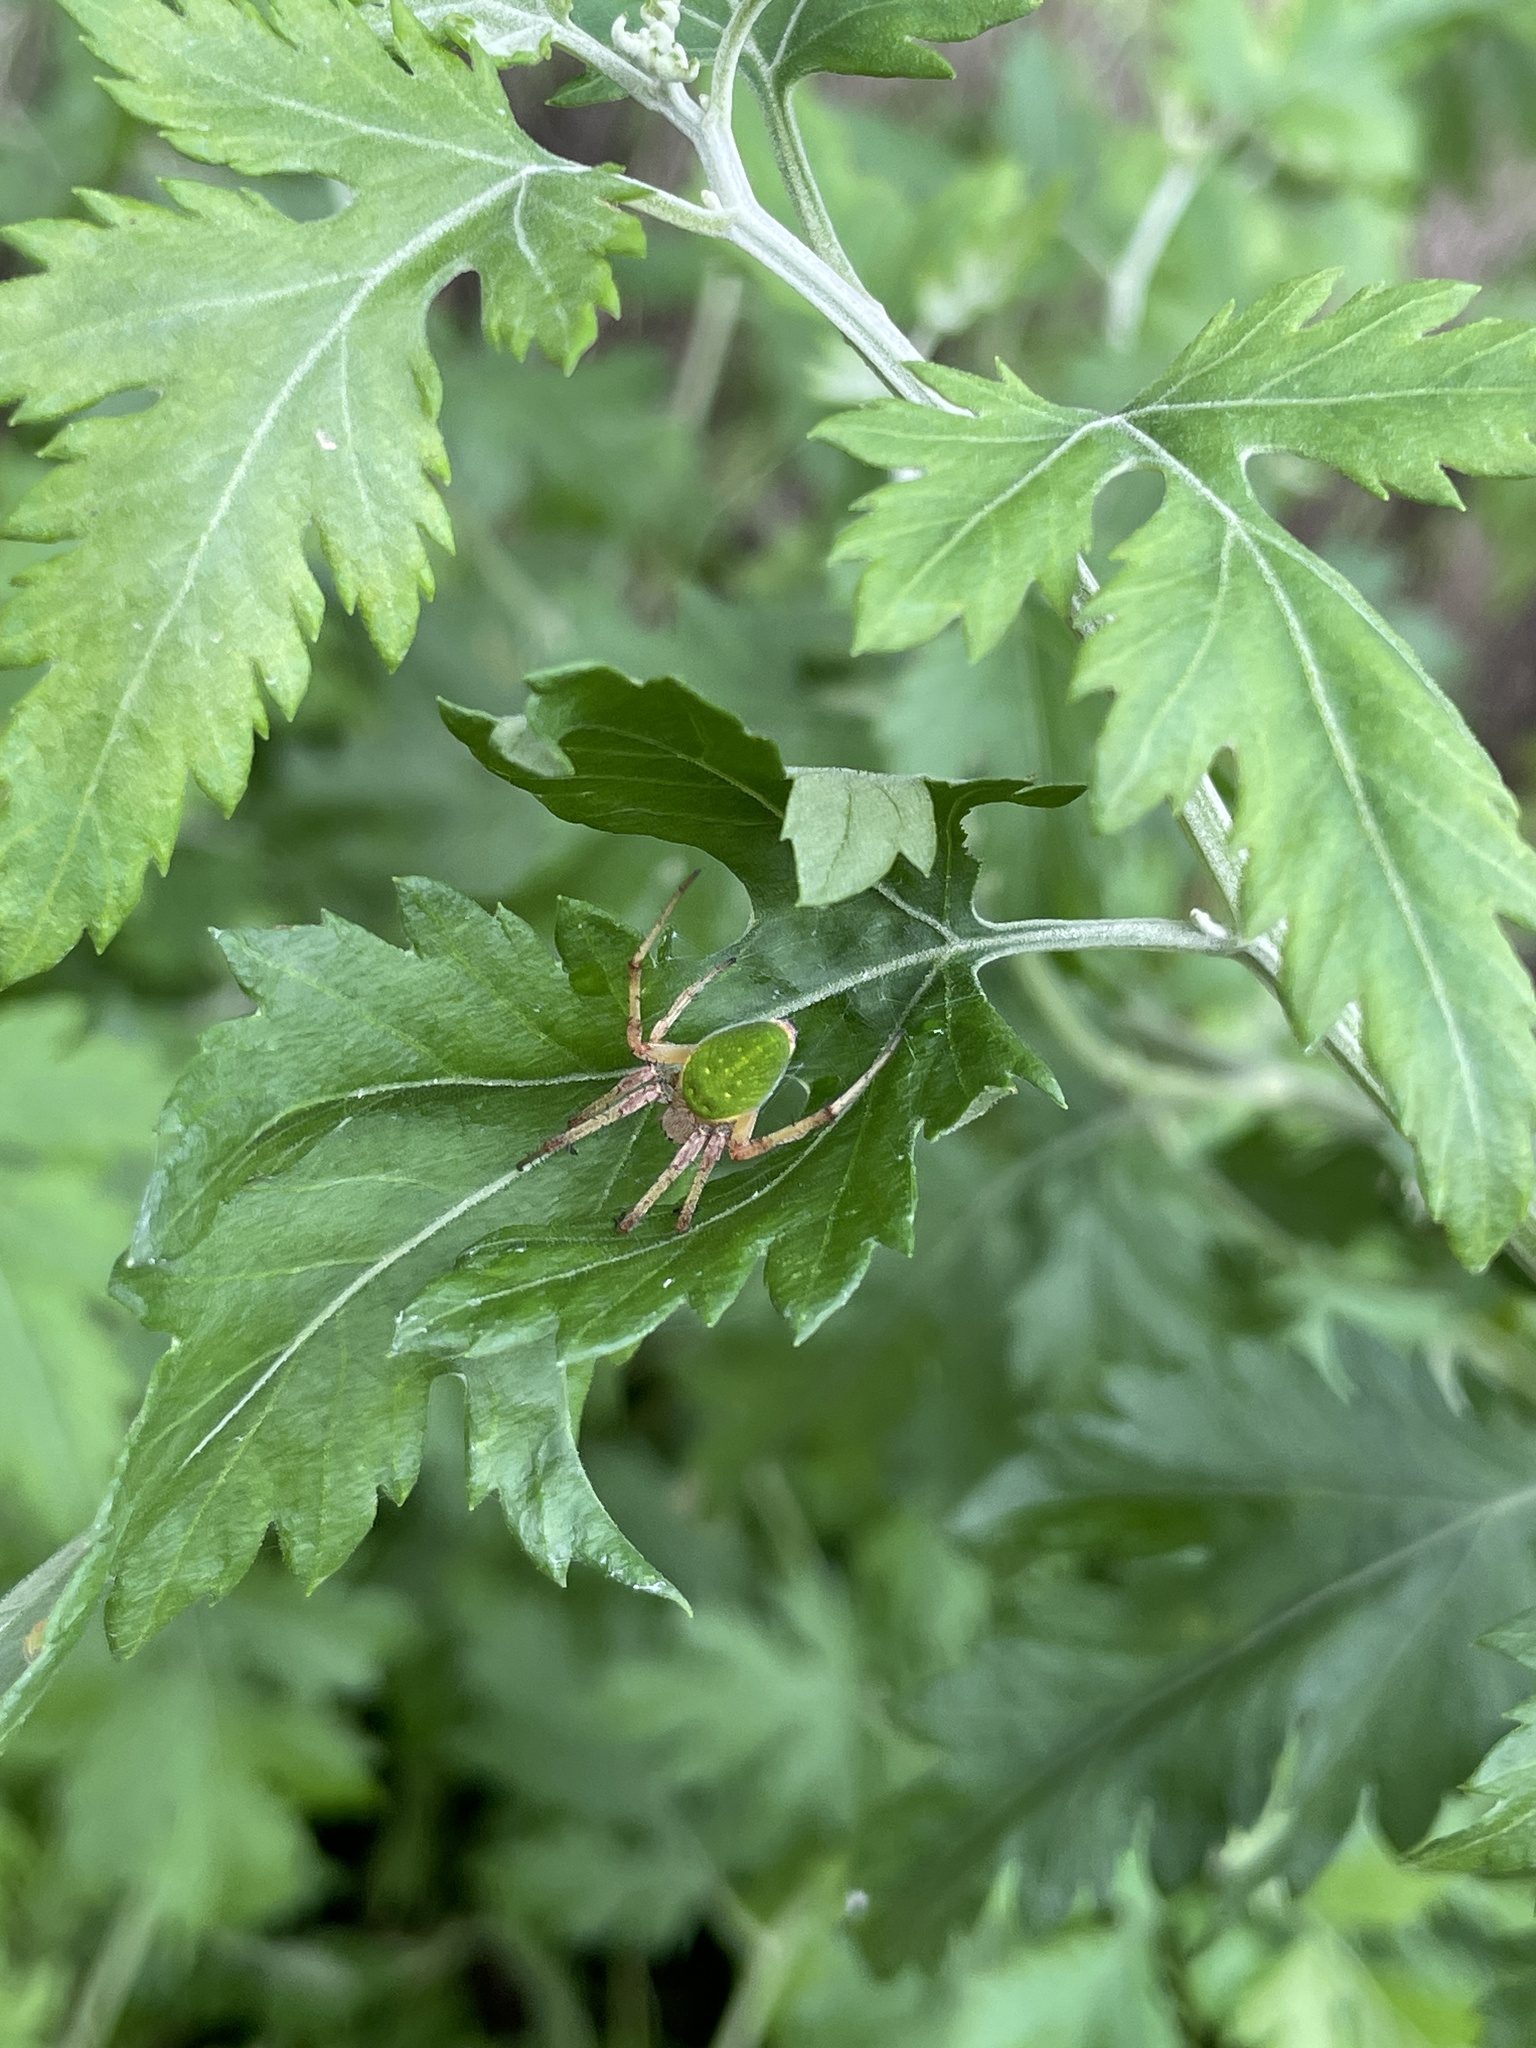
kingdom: Animalia
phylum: Arthropoda
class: Arachnida
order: Araneae
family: Araneidae
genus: Neoscona
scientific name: Neoscona scylloides
